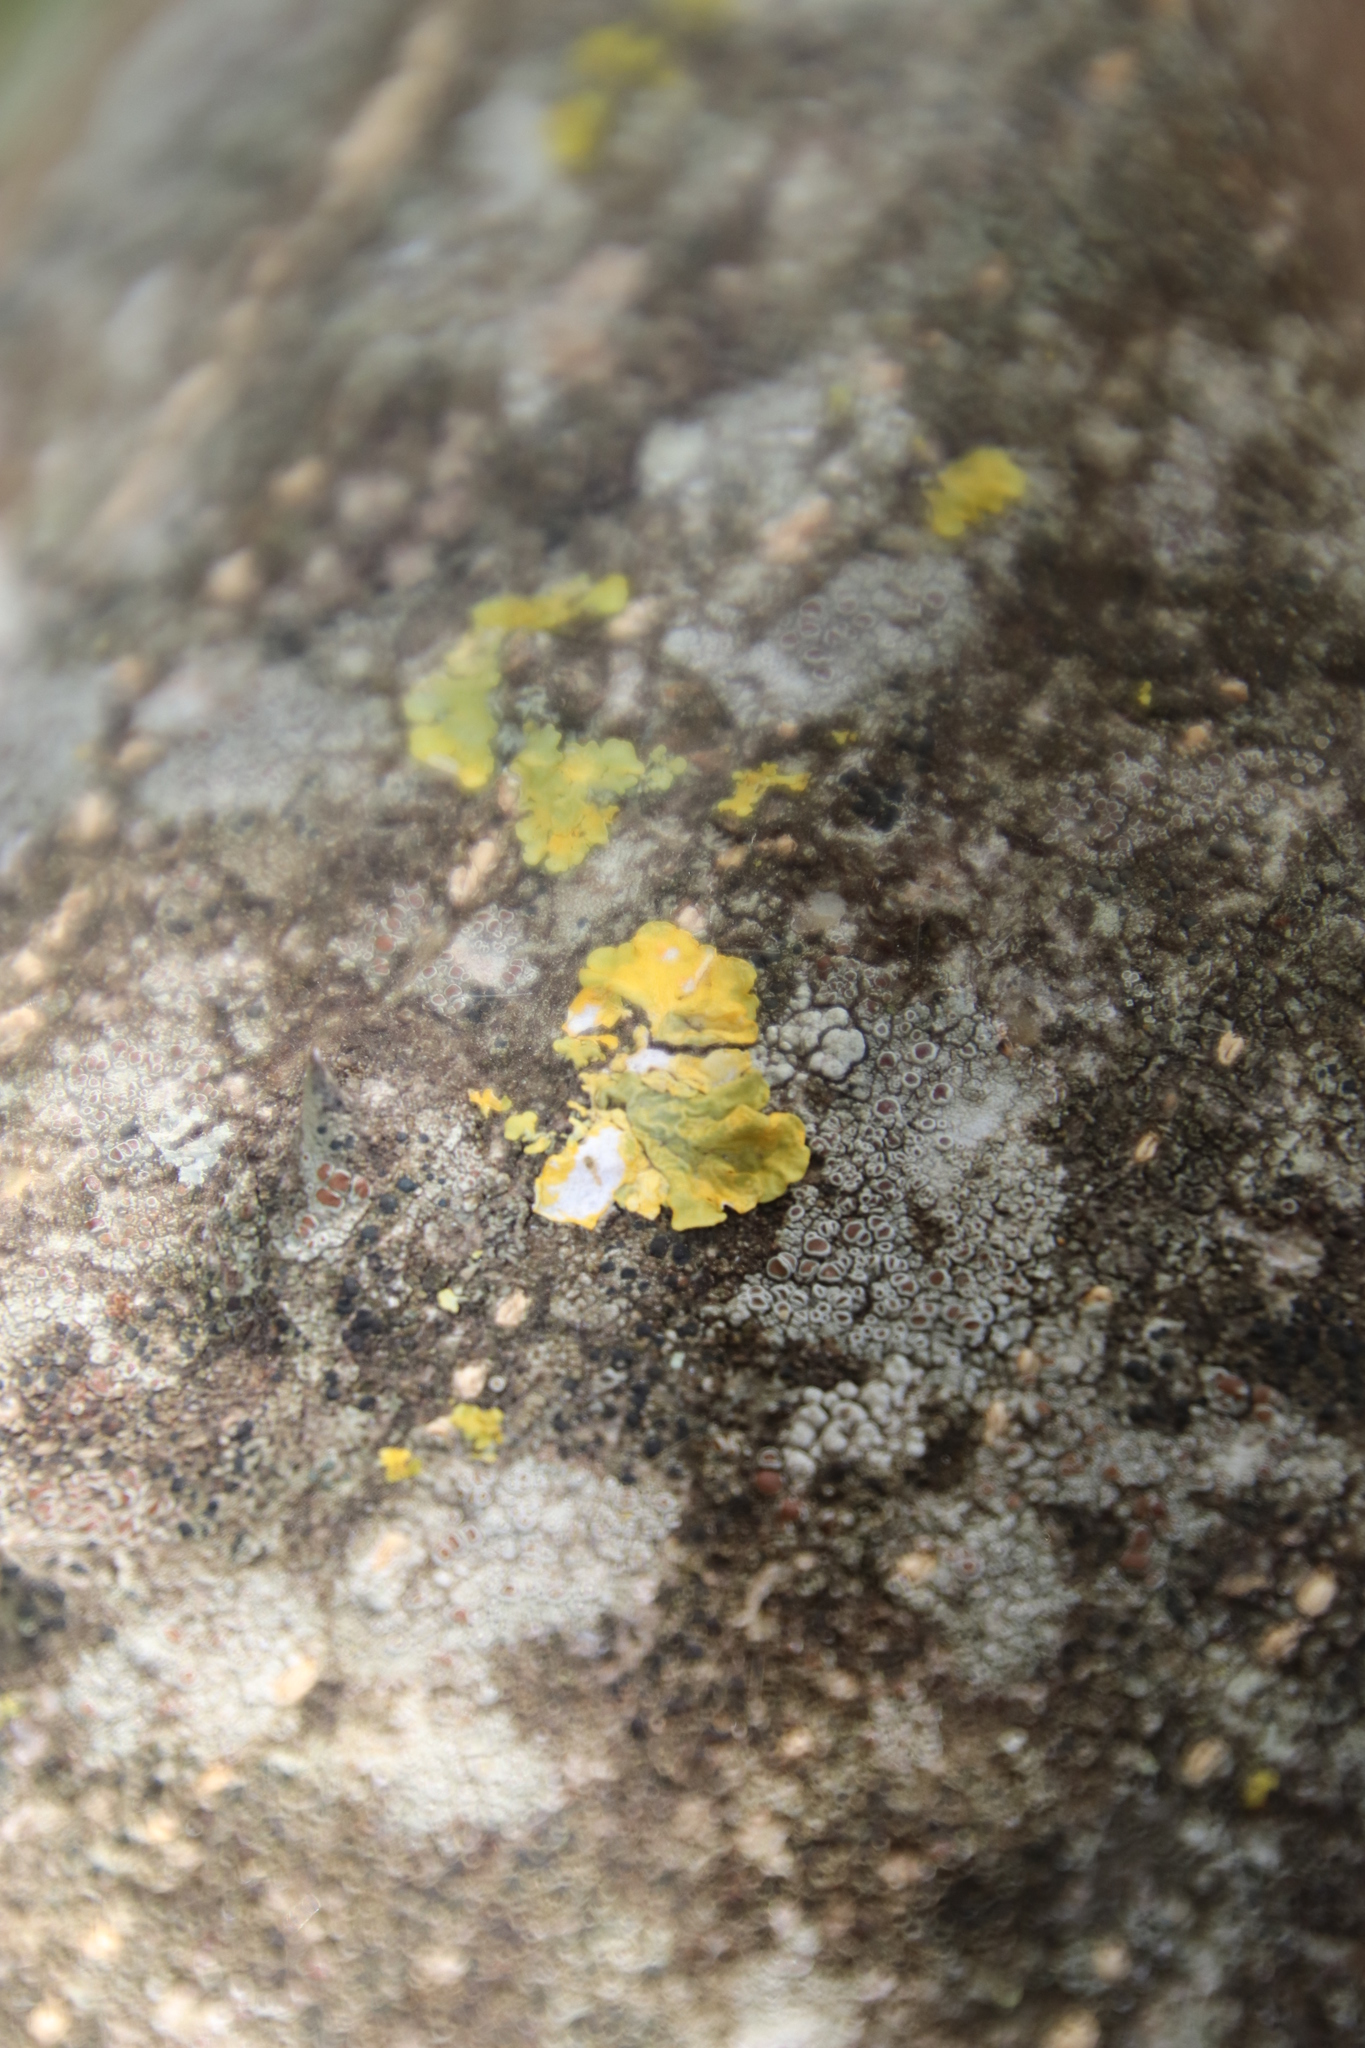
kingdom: Fungi
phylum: Ascomycota
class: Lecanoromycetes
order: Teloschistales
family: Teloschistaceae
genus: Xanthoria
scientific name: Xanthoria parietina
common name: Common orange lichen
